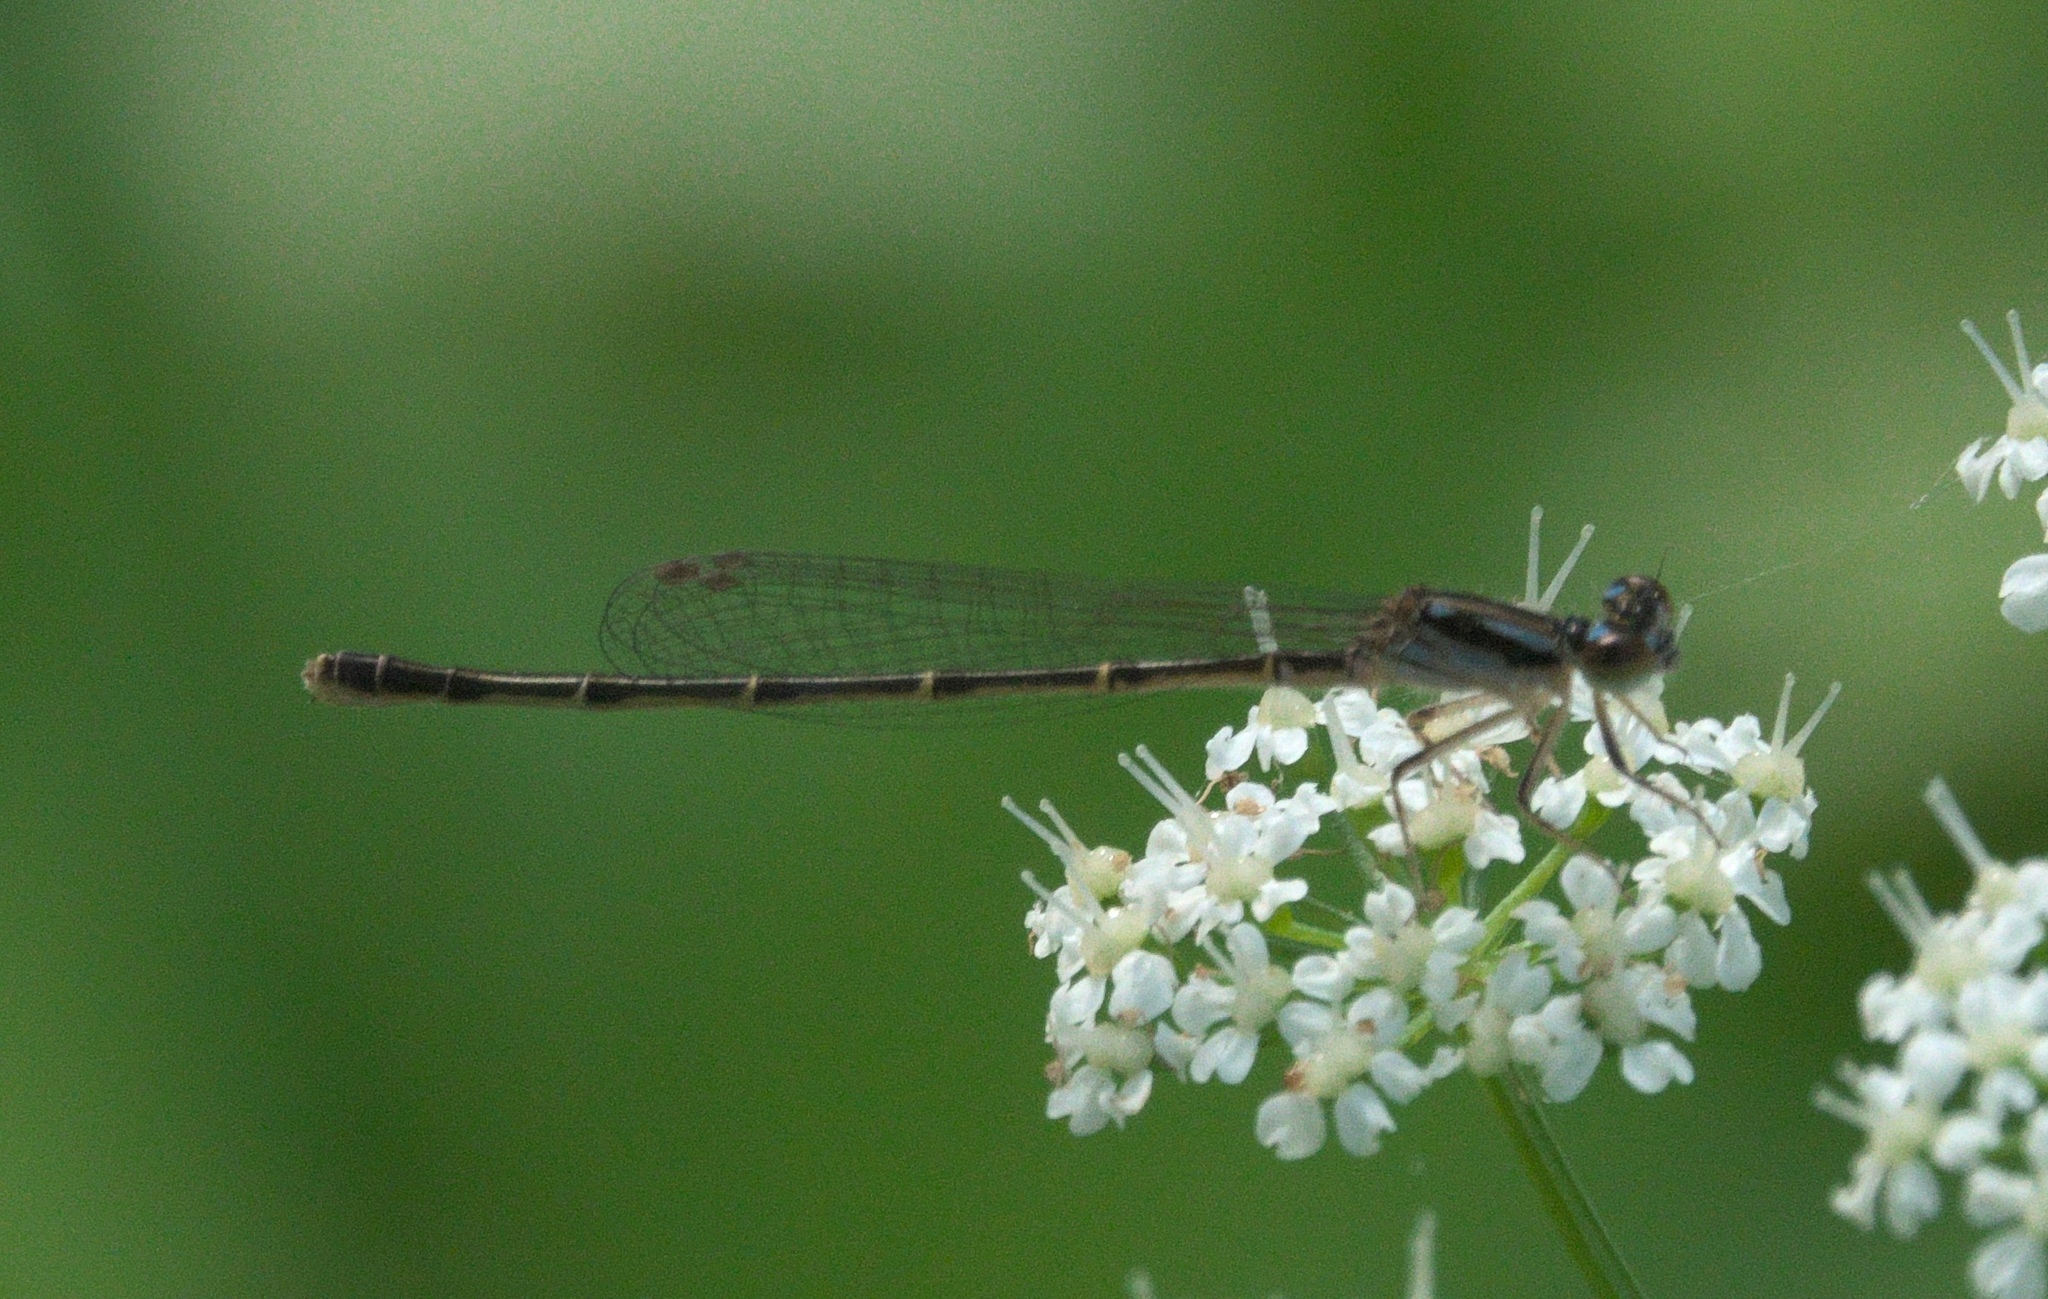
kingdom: Animalia
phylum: Arthropoda
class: Insecta
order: Odonata
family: Coenagrionidae
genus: Ischnura
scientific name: Ischnura posita
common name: Fragile forktail
